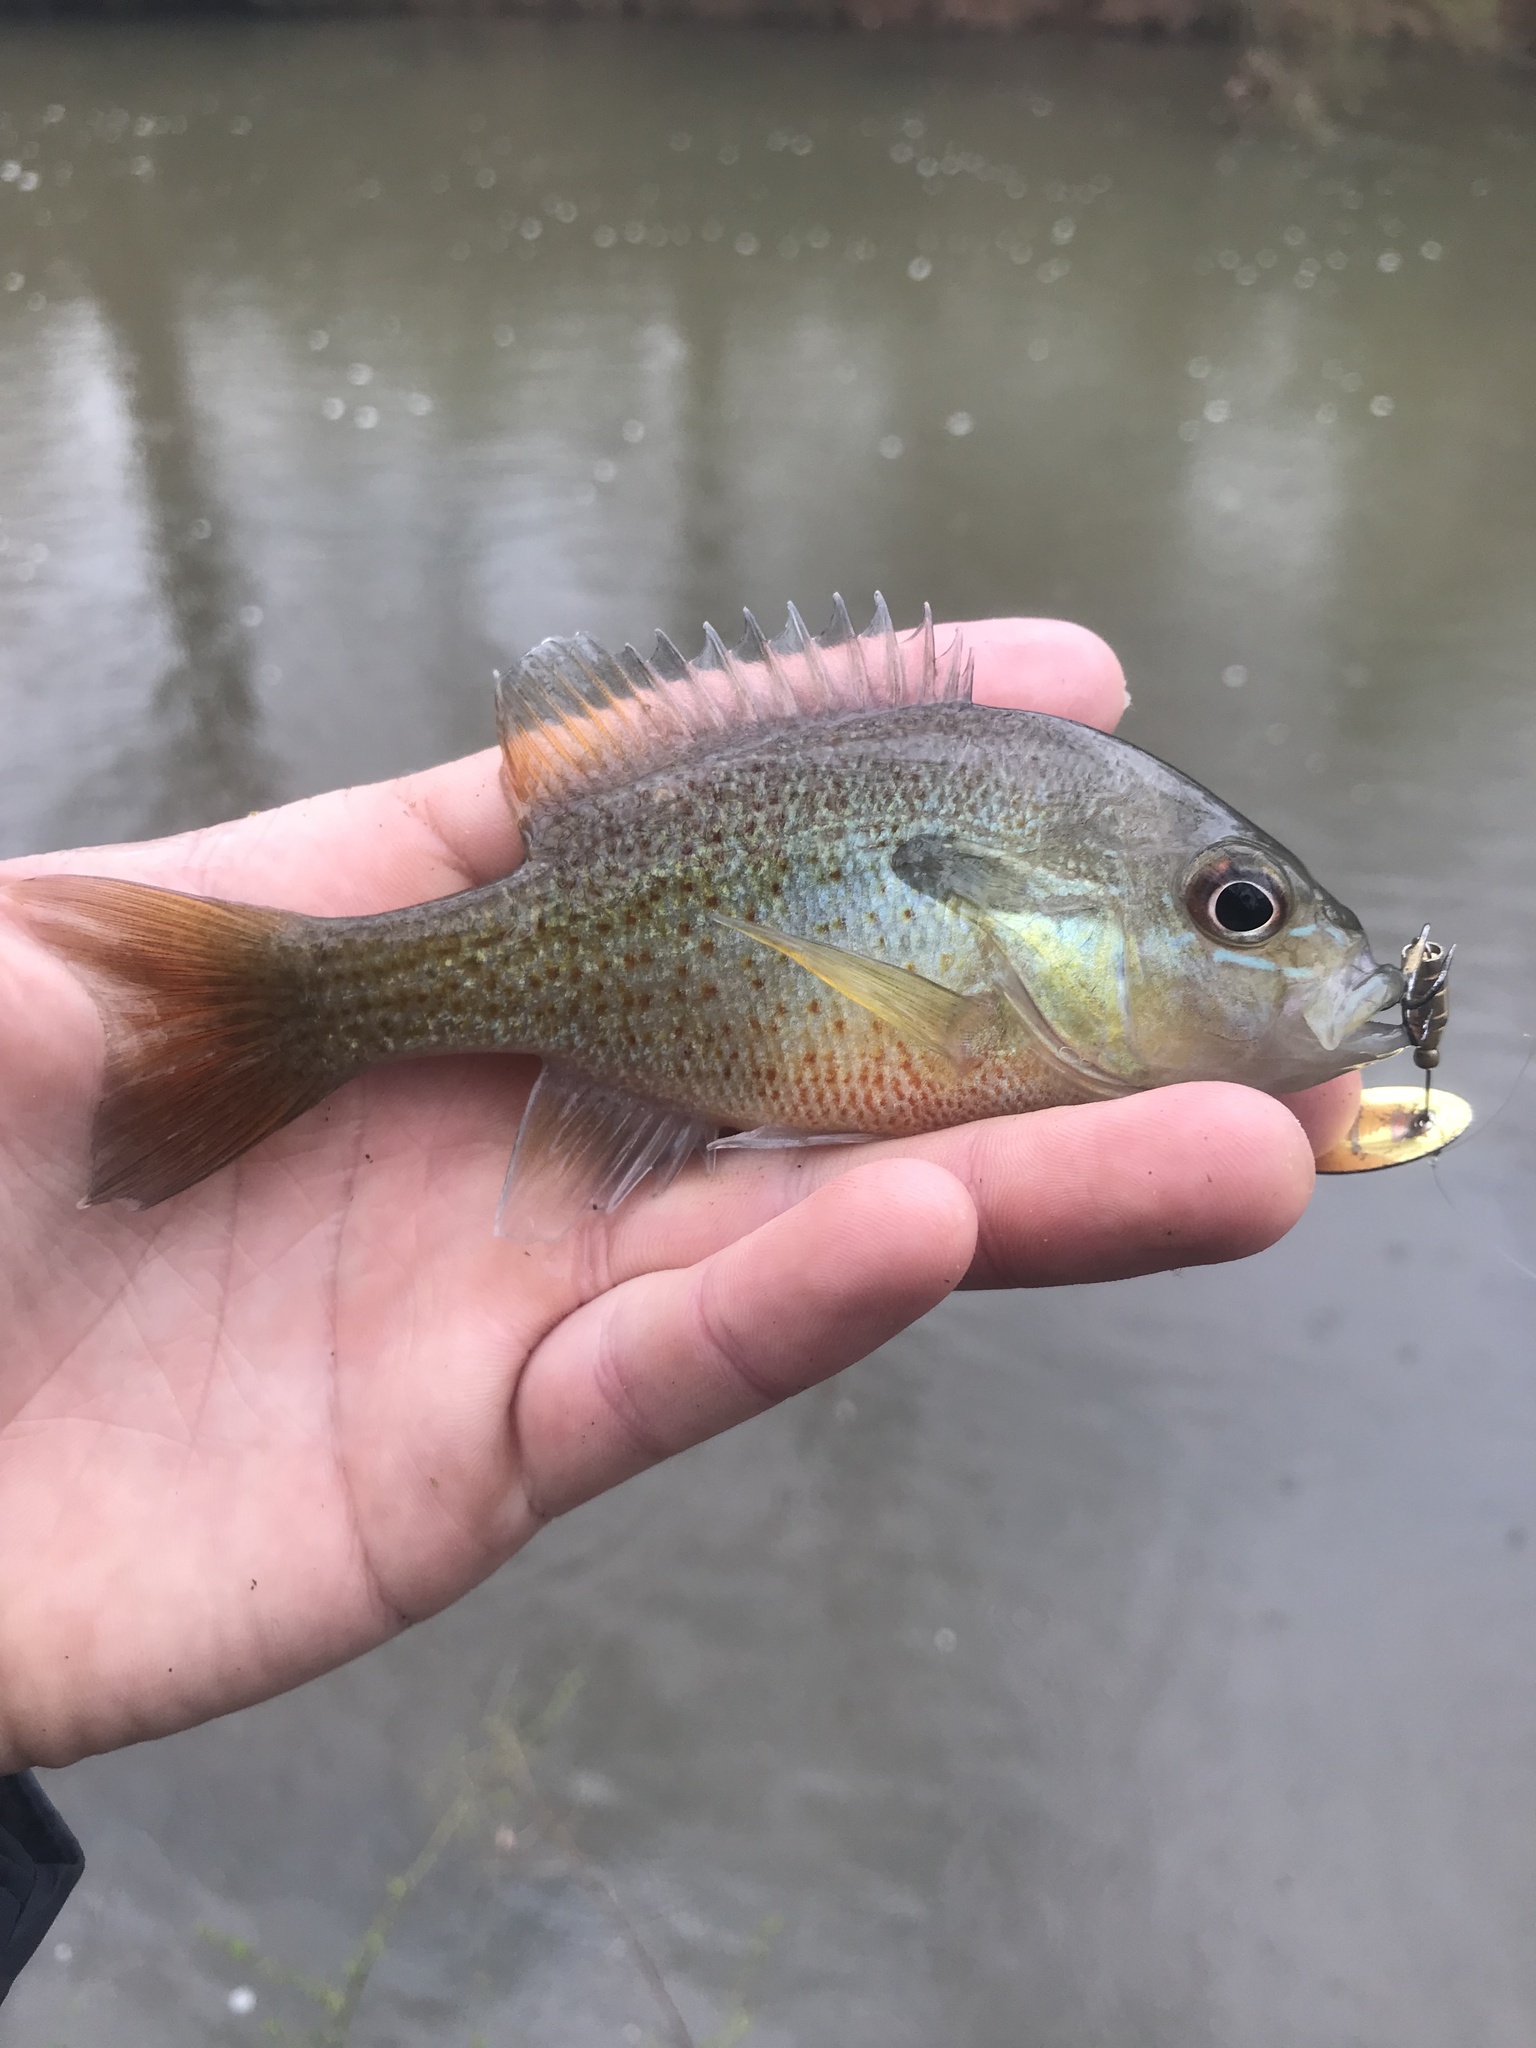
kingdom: Animalia
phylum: Chordata
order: Perciformes
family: Centrarchidae
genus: Lepomis
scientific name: Lepomis auritus
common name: Redbreast sunfish
